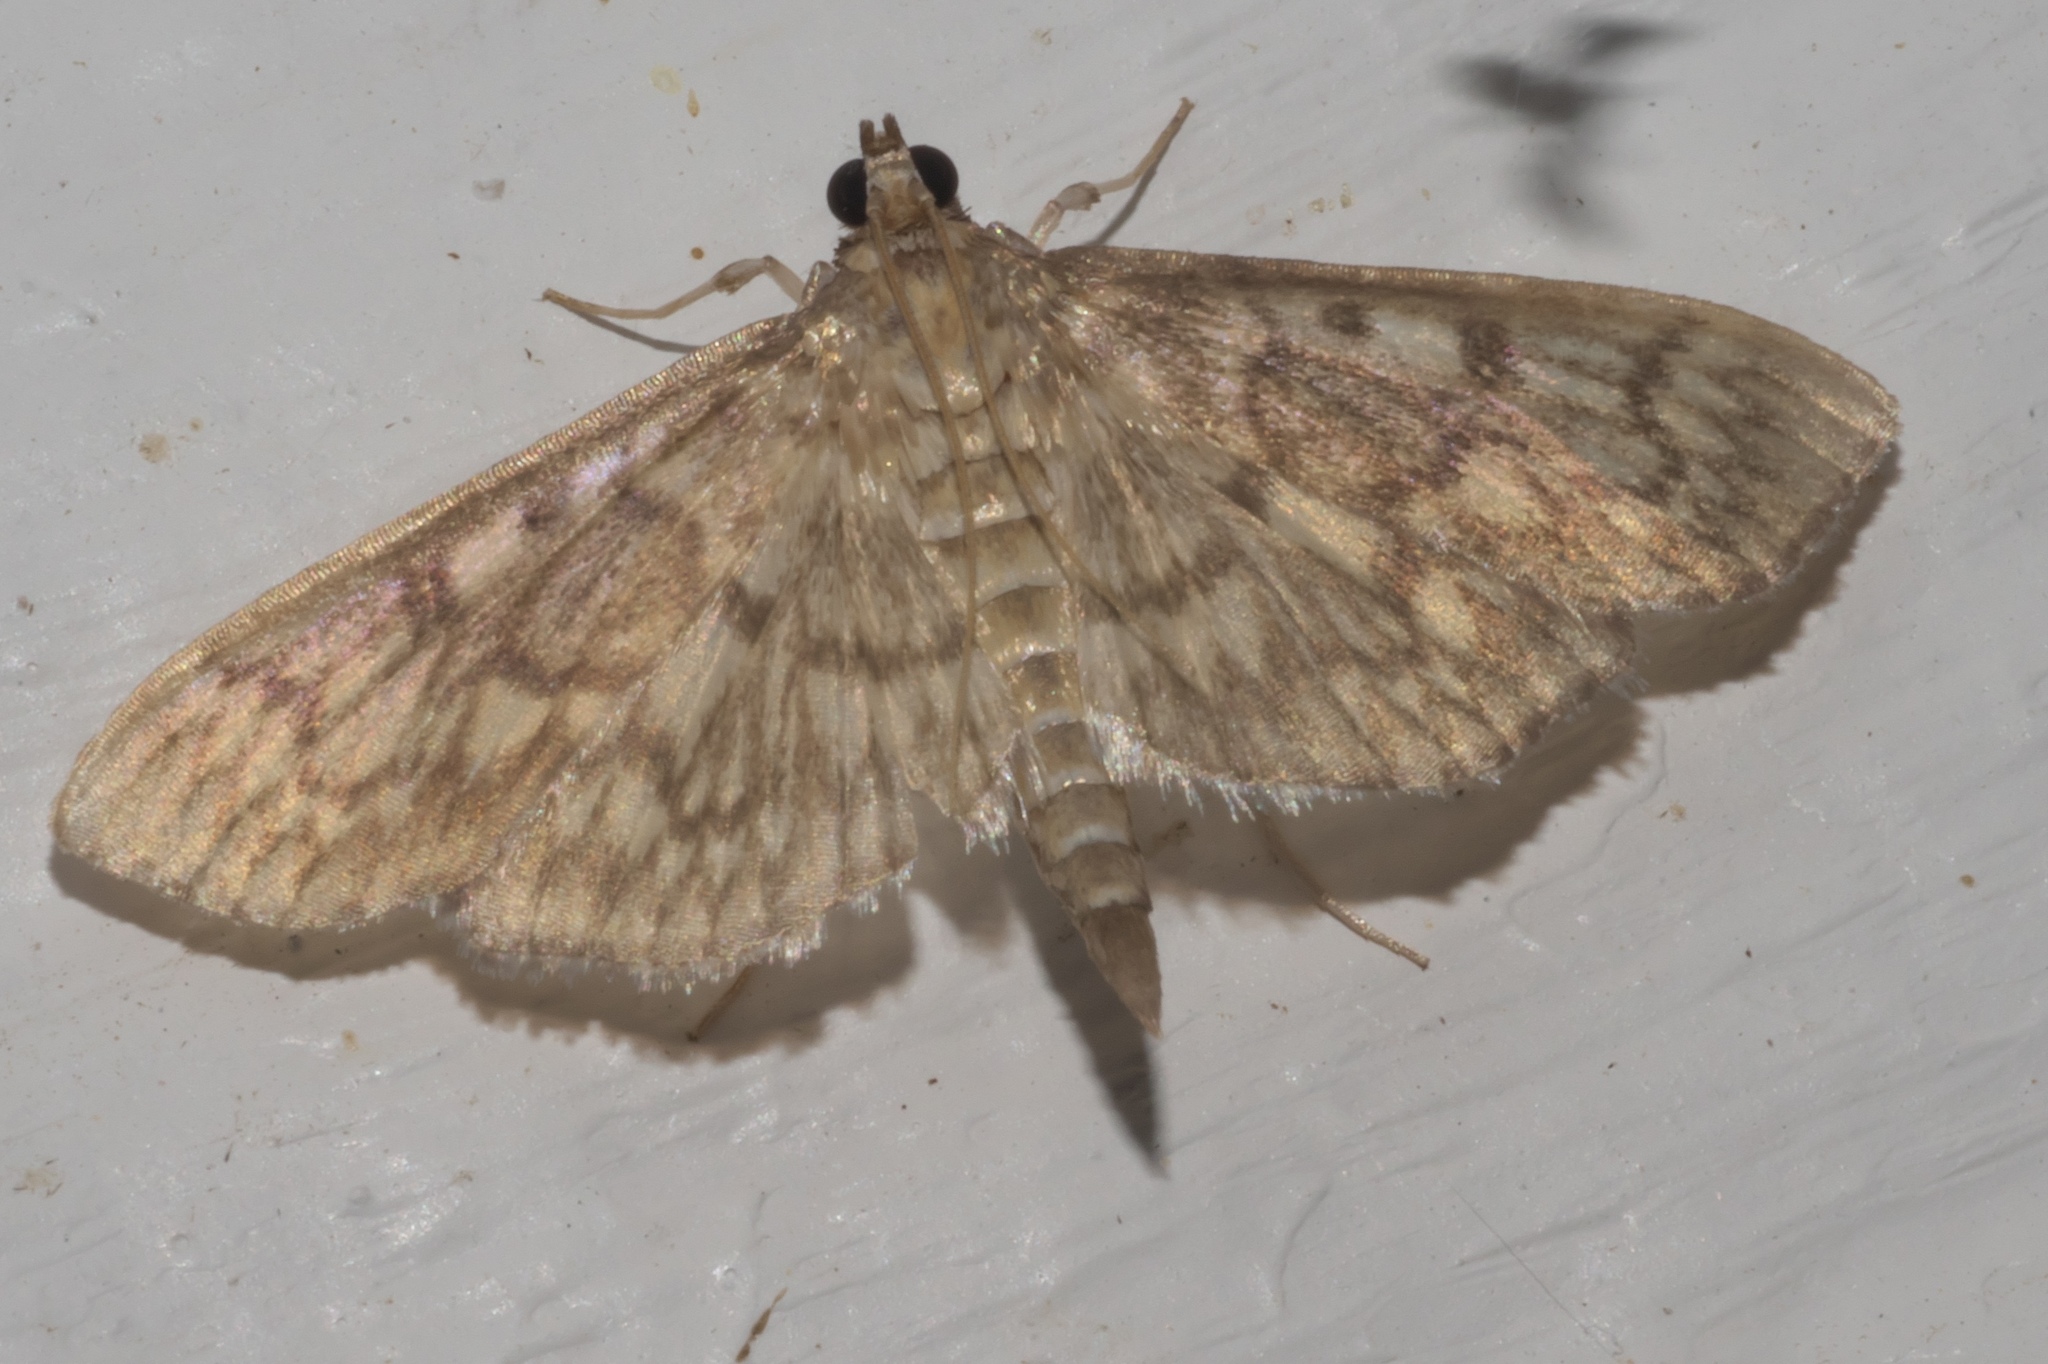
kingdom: Animalia
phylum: Arthropoda
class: Insecta
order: Lepidoptera
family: Crambidae
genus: Herpetogramma
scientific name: Herpetogramma pertextalis
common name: Bold-feathered grass moth
